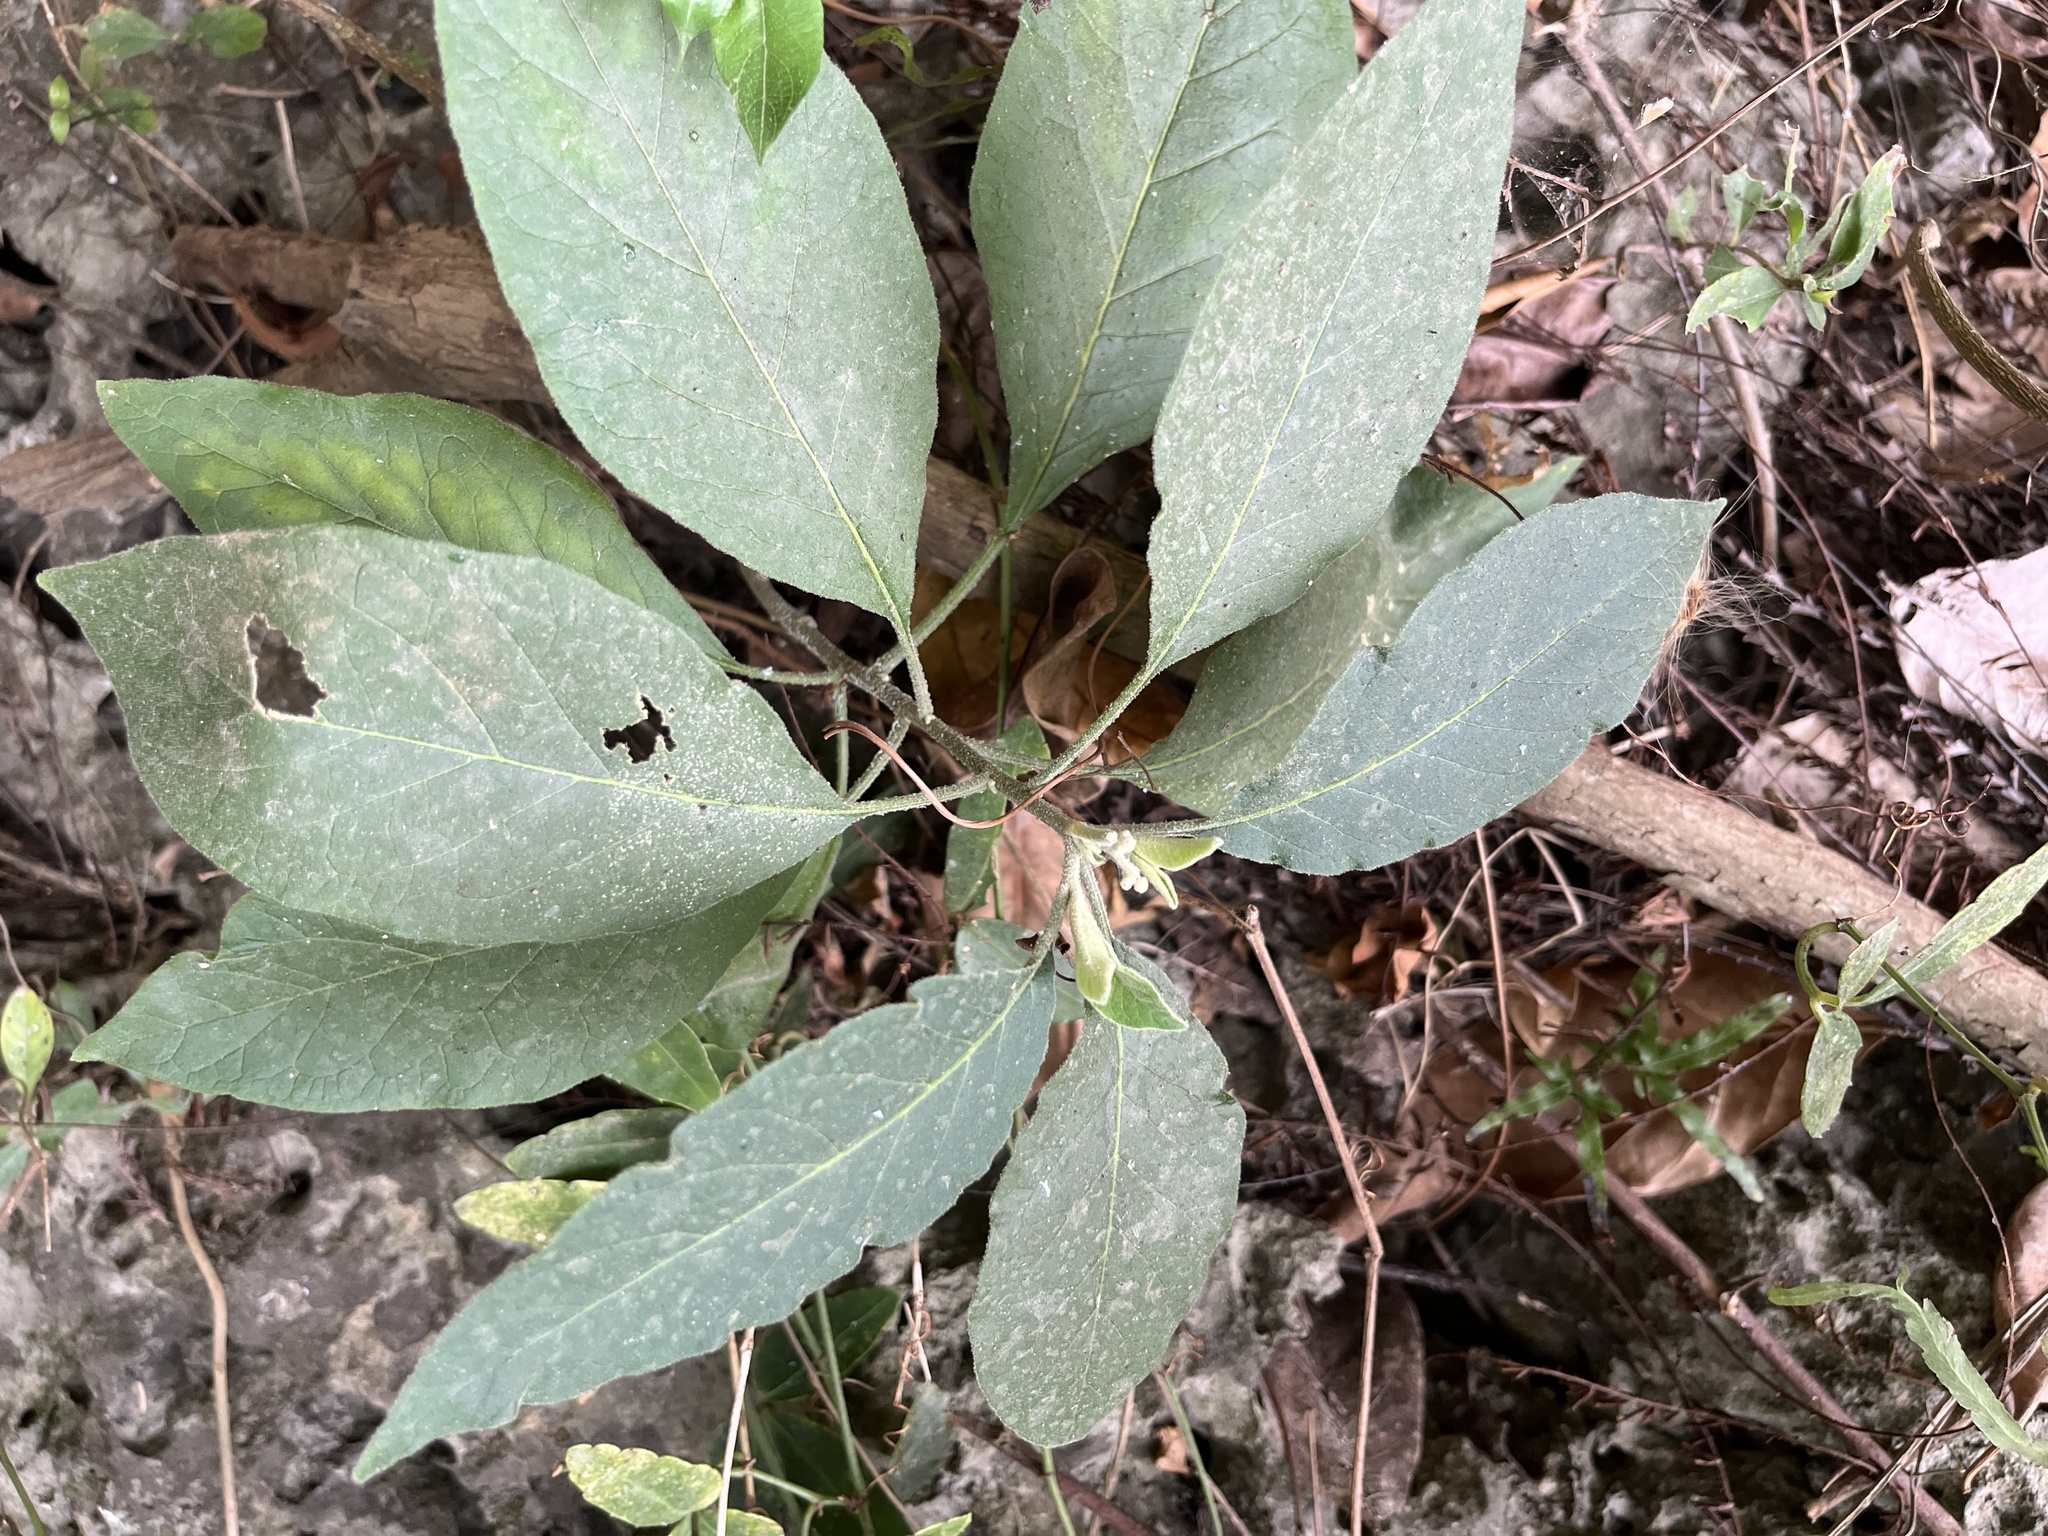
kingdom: Plantae
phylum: Tracheophyta
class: Magnoliopsida
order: Solanales
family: Solanaceae
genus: Solanum
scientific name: Solanum erianthum
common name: Tobacco-tree
